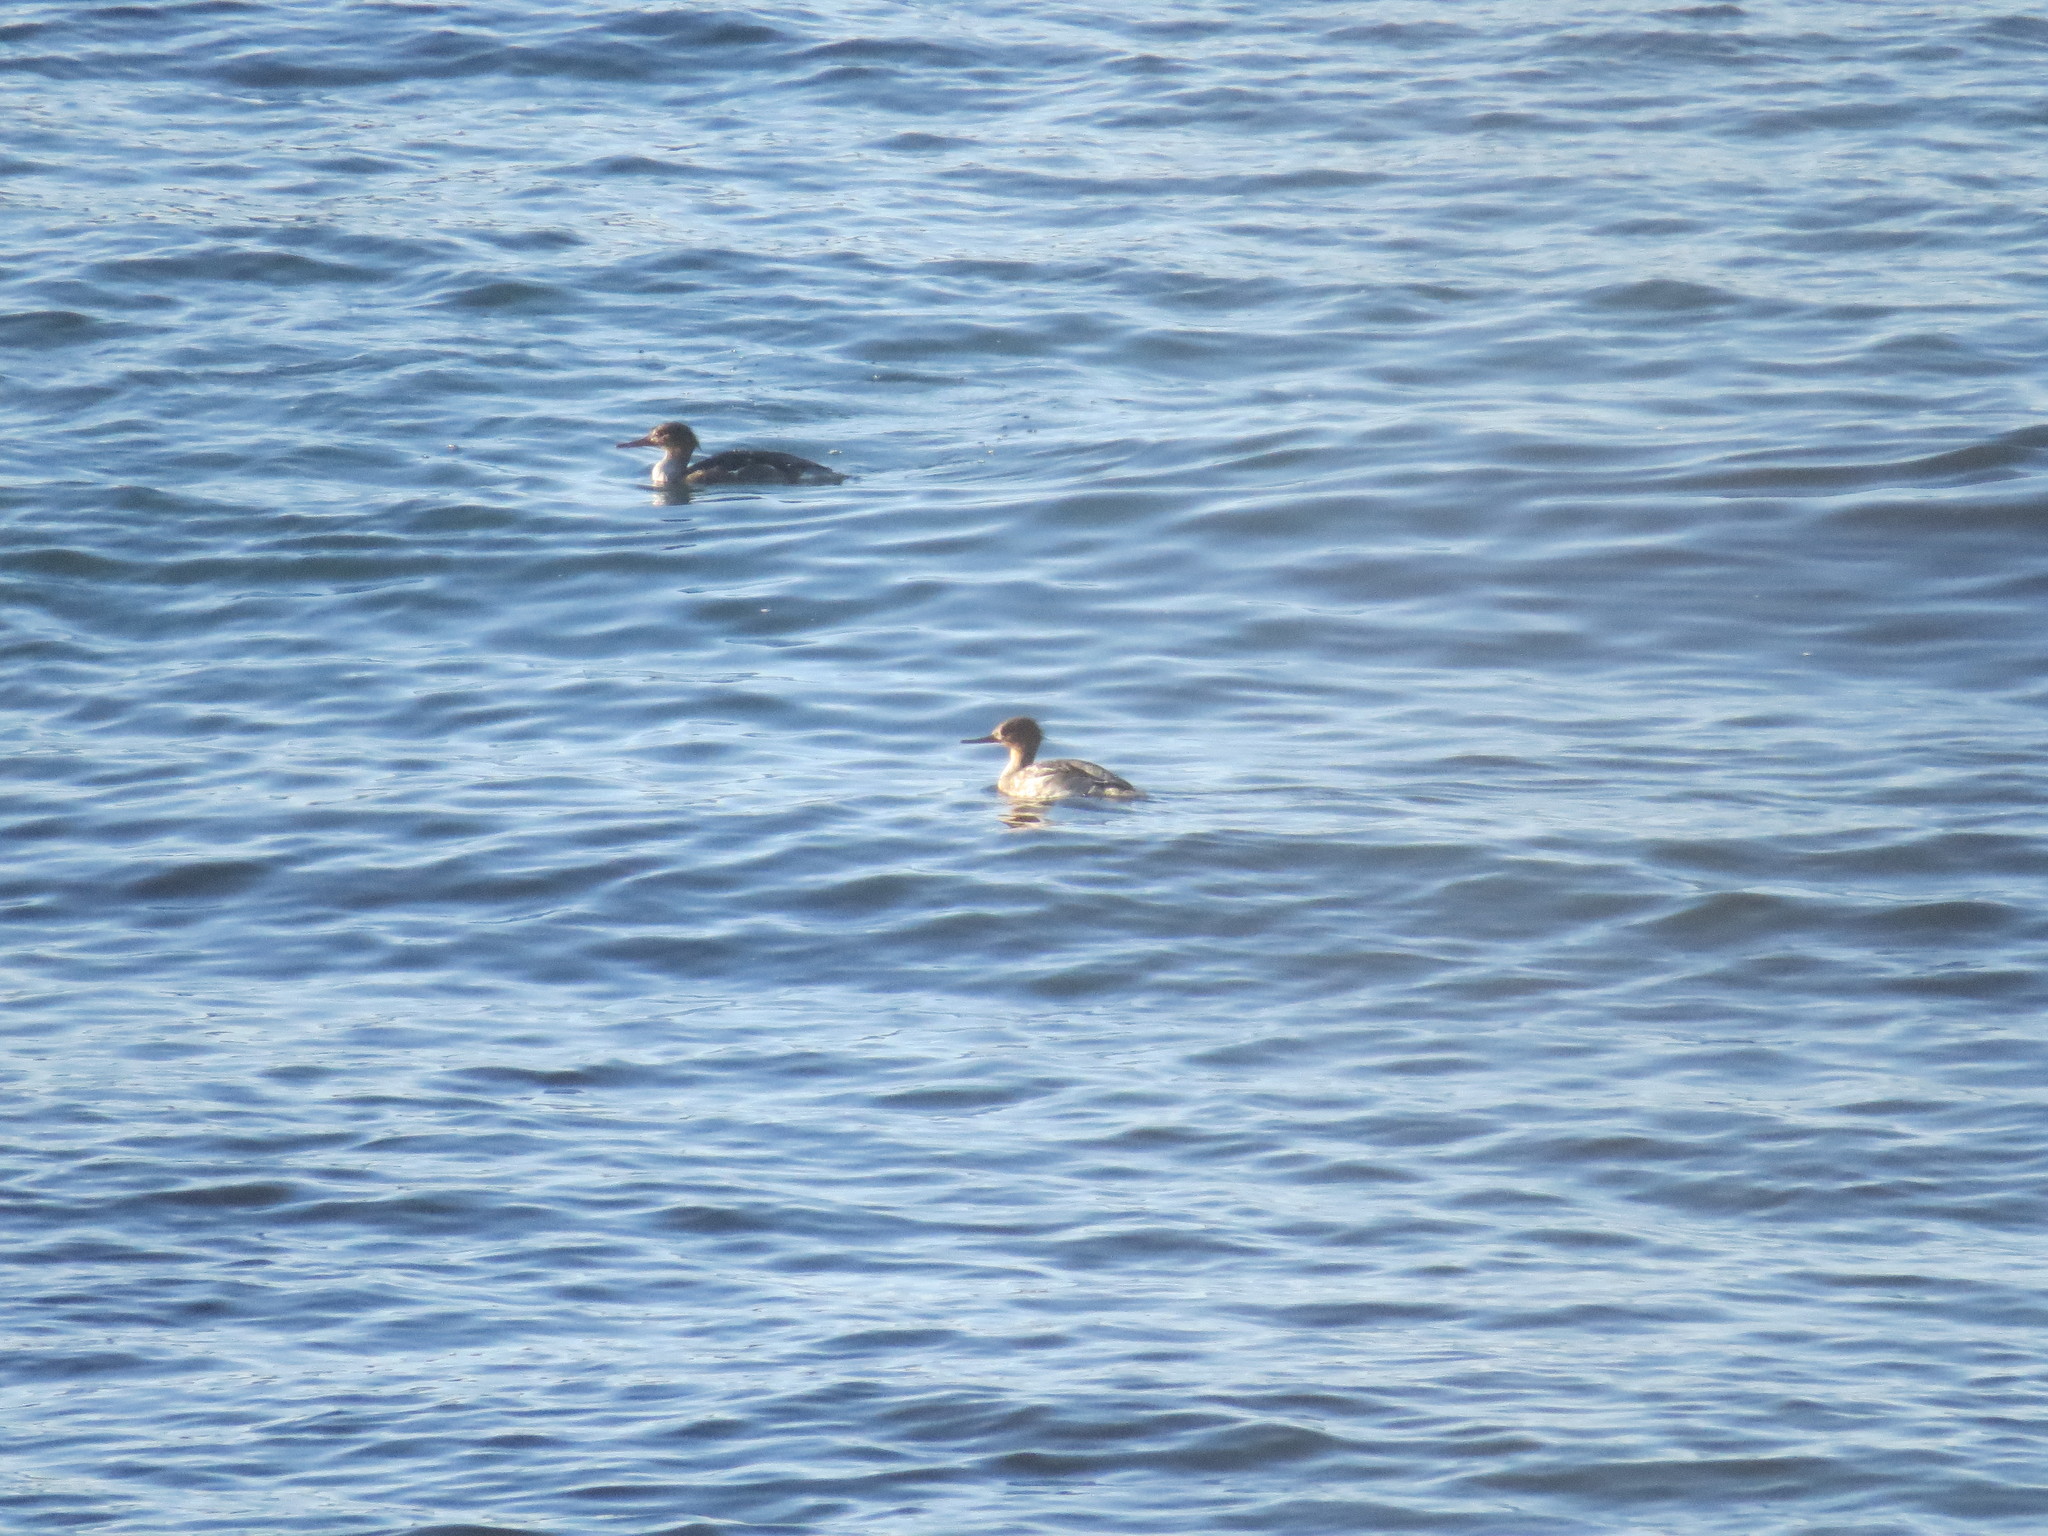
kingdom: Animalia
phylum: Chordata
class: Aves
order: Anseriformes
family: Anatidae
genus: Mergus
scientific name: Mergus serrator
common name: Red-breasted merganser
